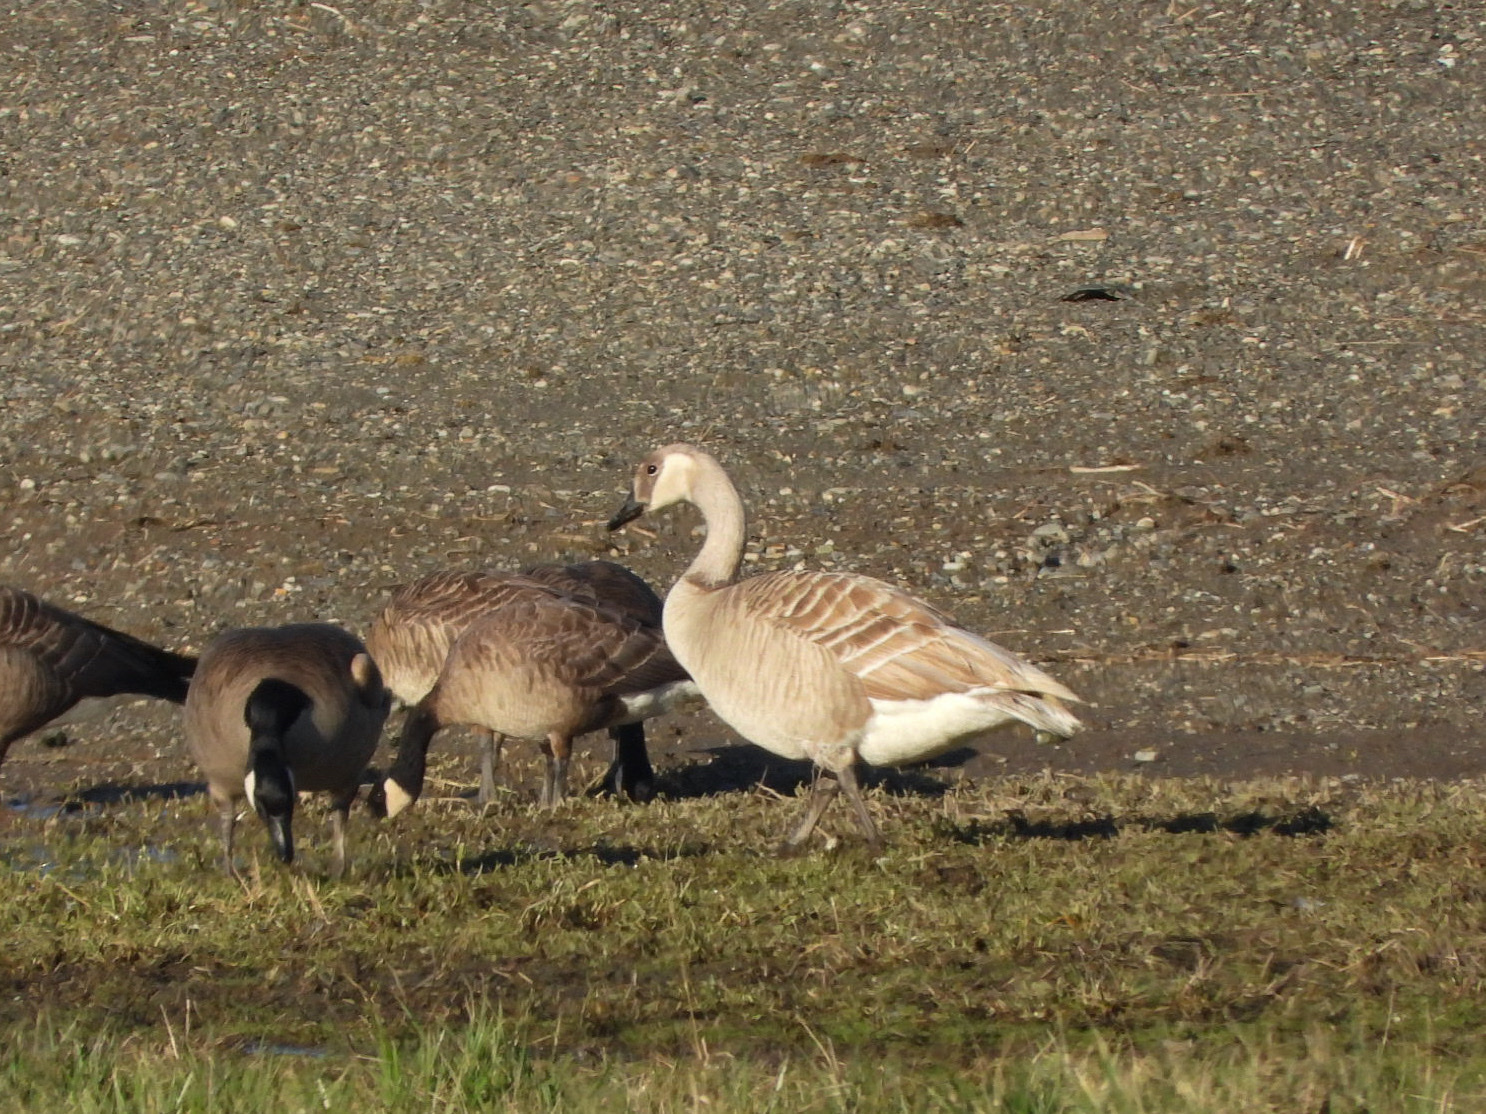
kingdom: Animalia
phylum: Chordata
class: Aves
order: Anseriformes
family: Anatidae
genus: Branta
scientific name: Branta canadensis
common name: Canada goose
